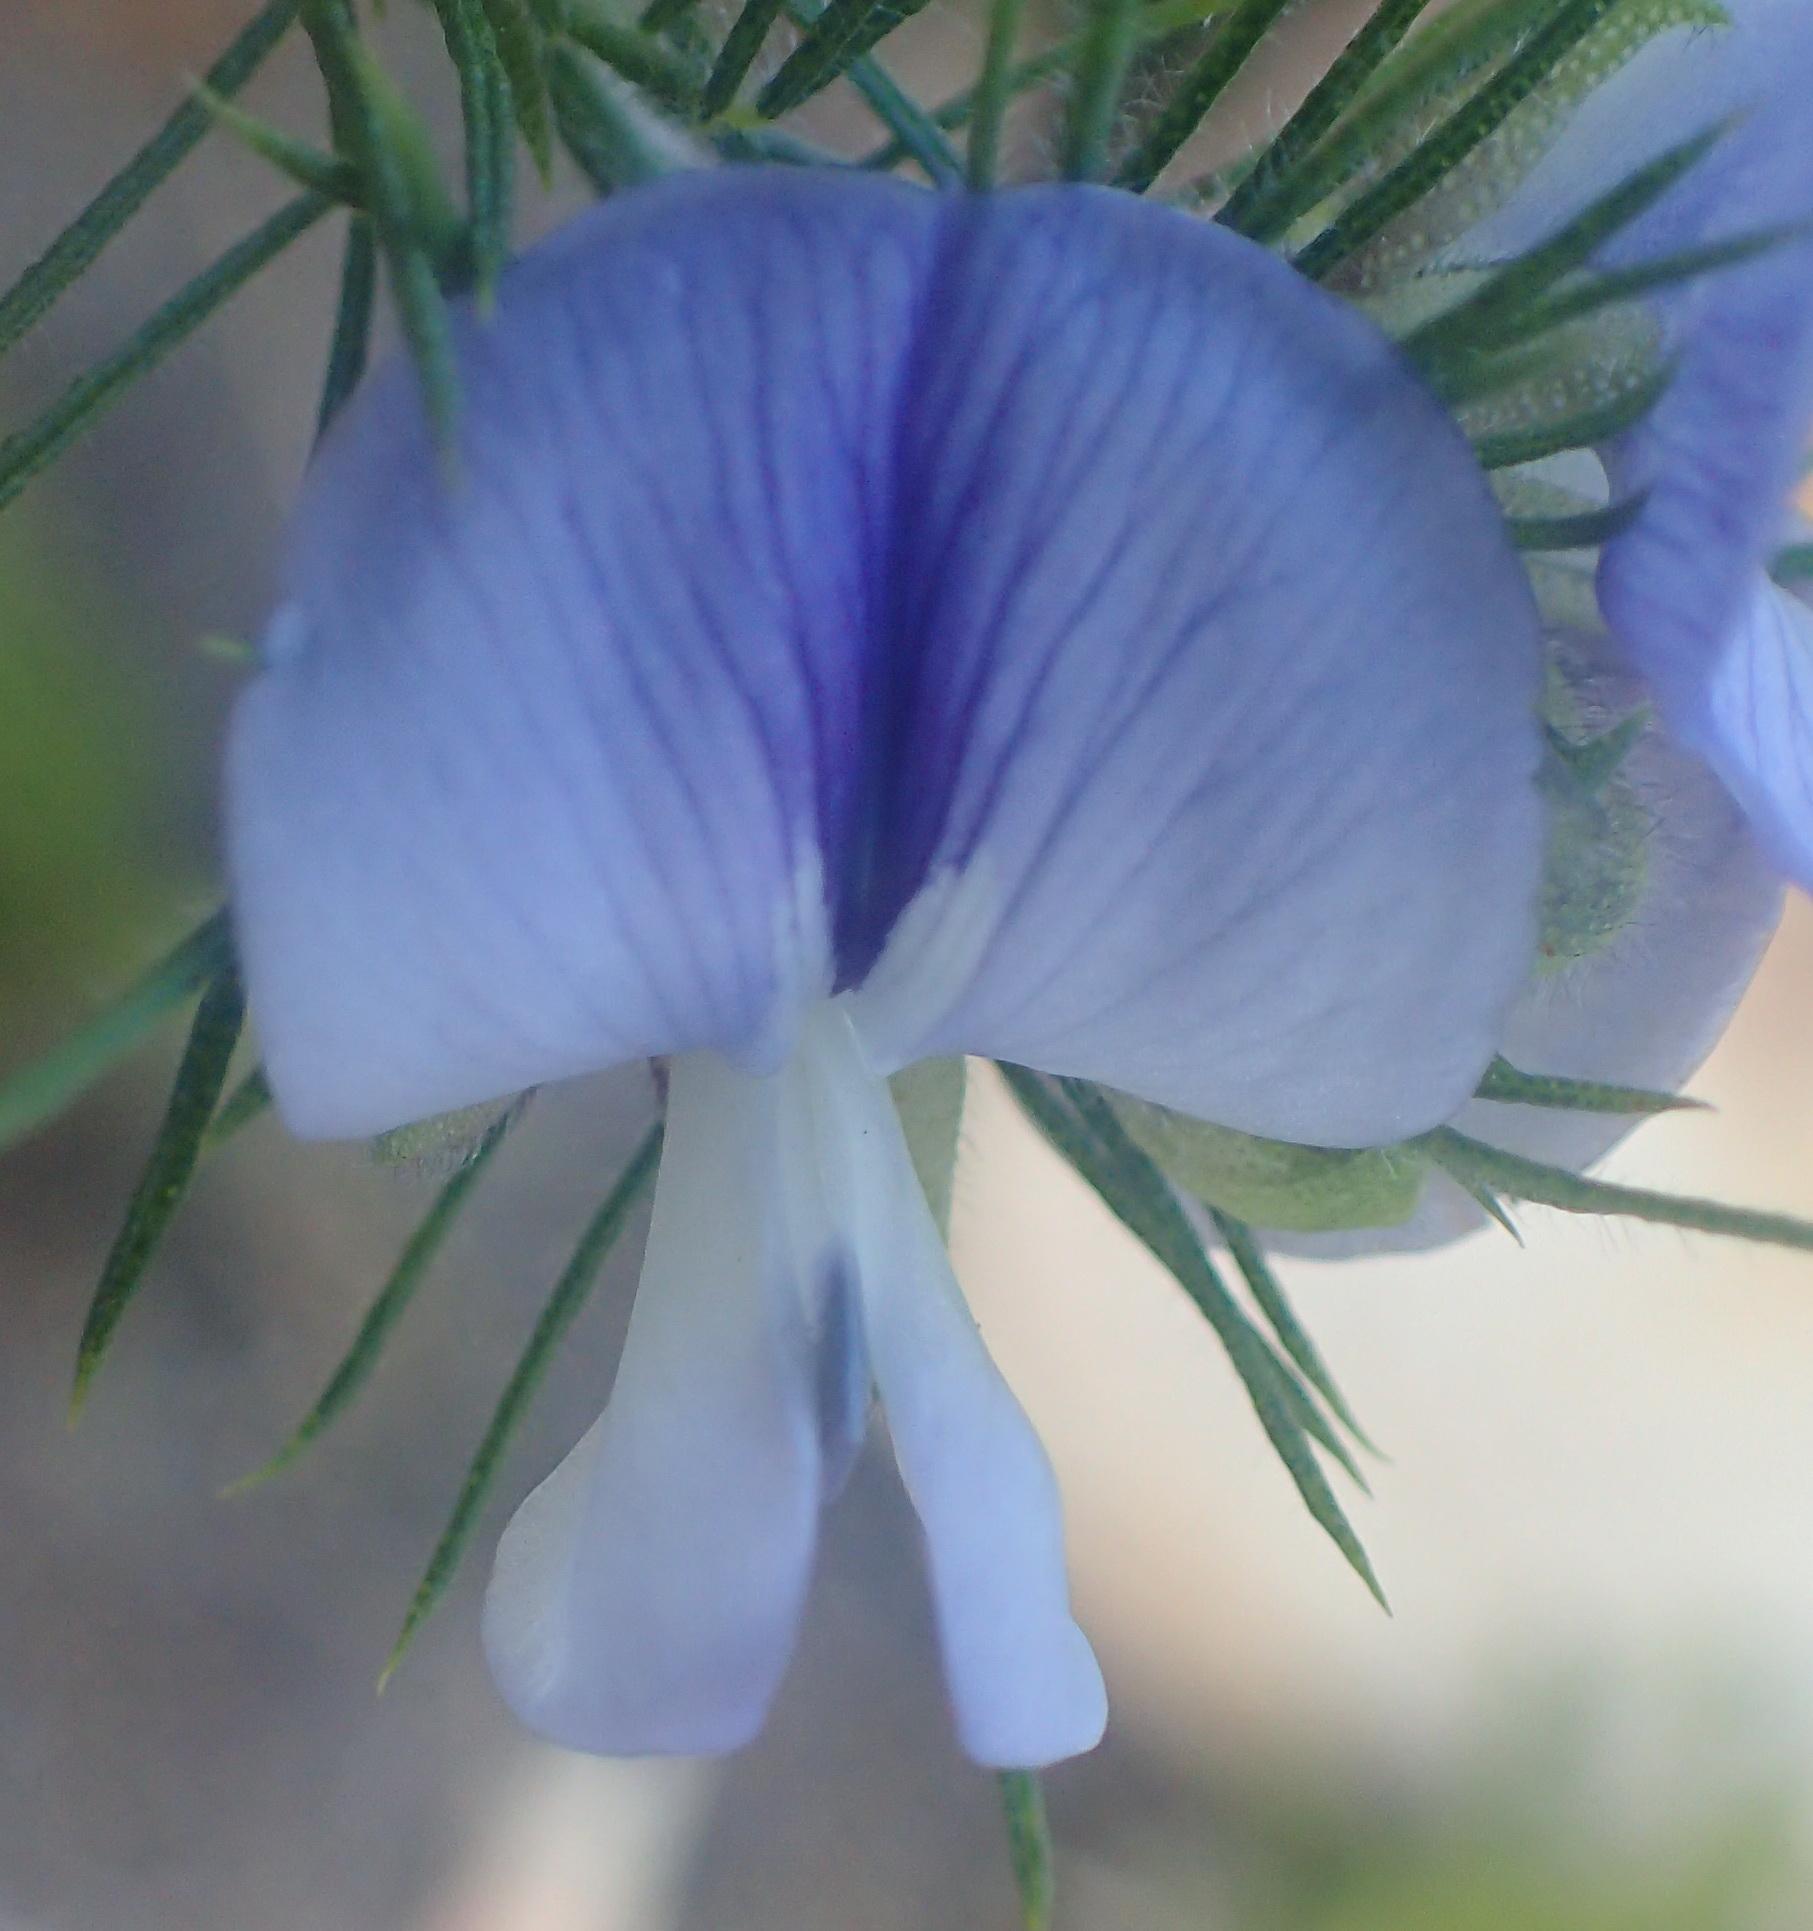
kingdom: Plantae
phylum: Tracheophyta
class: Magnoliopsida
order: Fabales
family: Fabaceae
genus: Psoralea
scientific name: Psoralea floccosa
